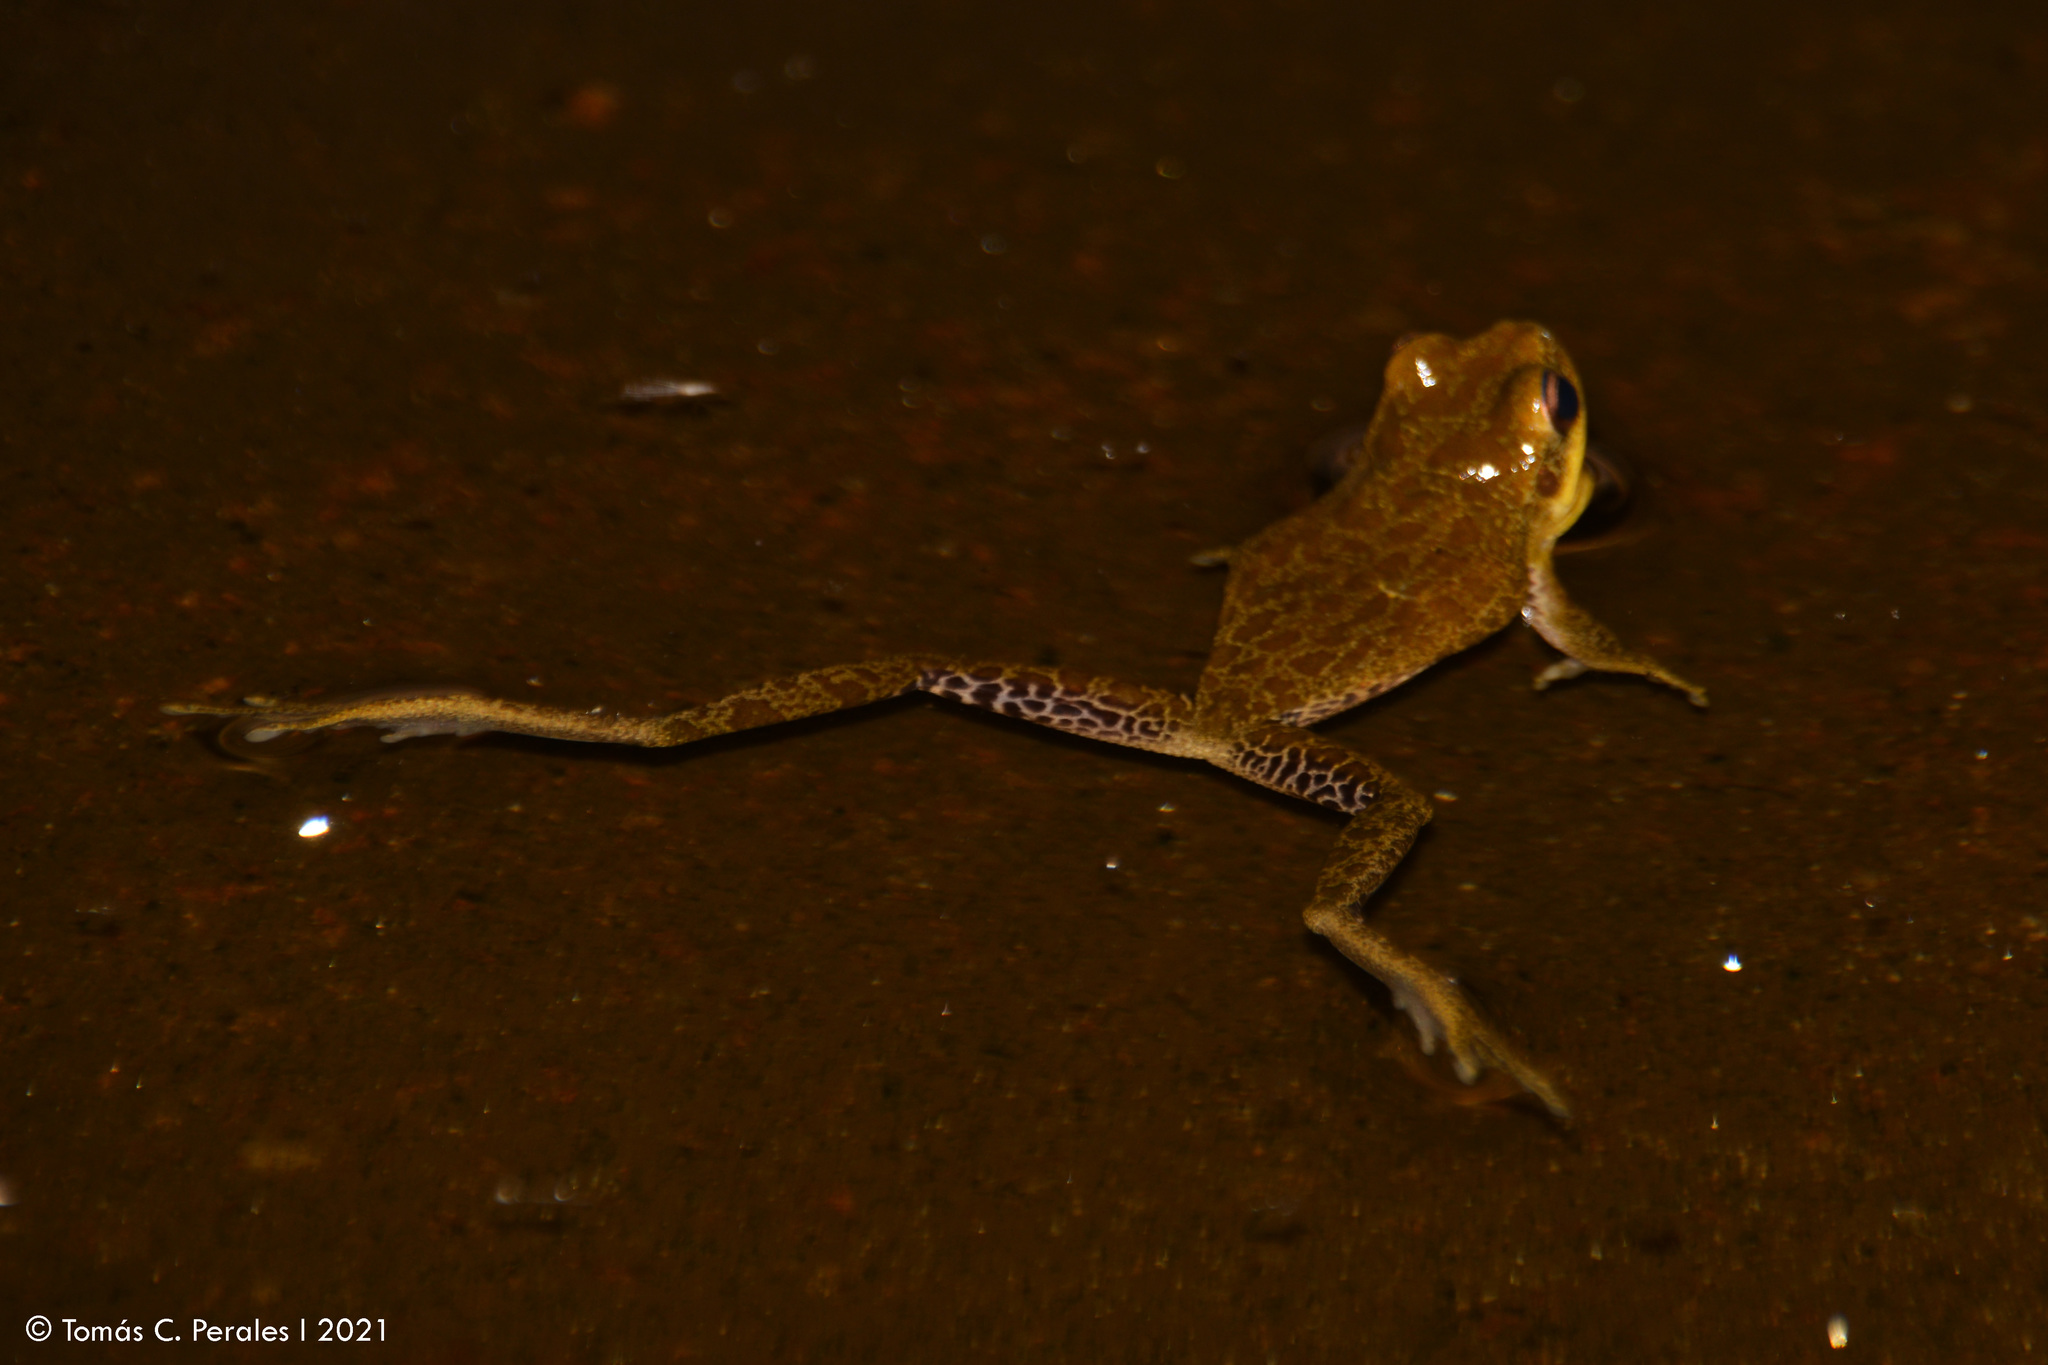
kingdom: Animalia
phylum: Chordata
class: Amphibia
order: Anura
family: Hylidae
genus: Boana
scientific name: Boana cordobae
